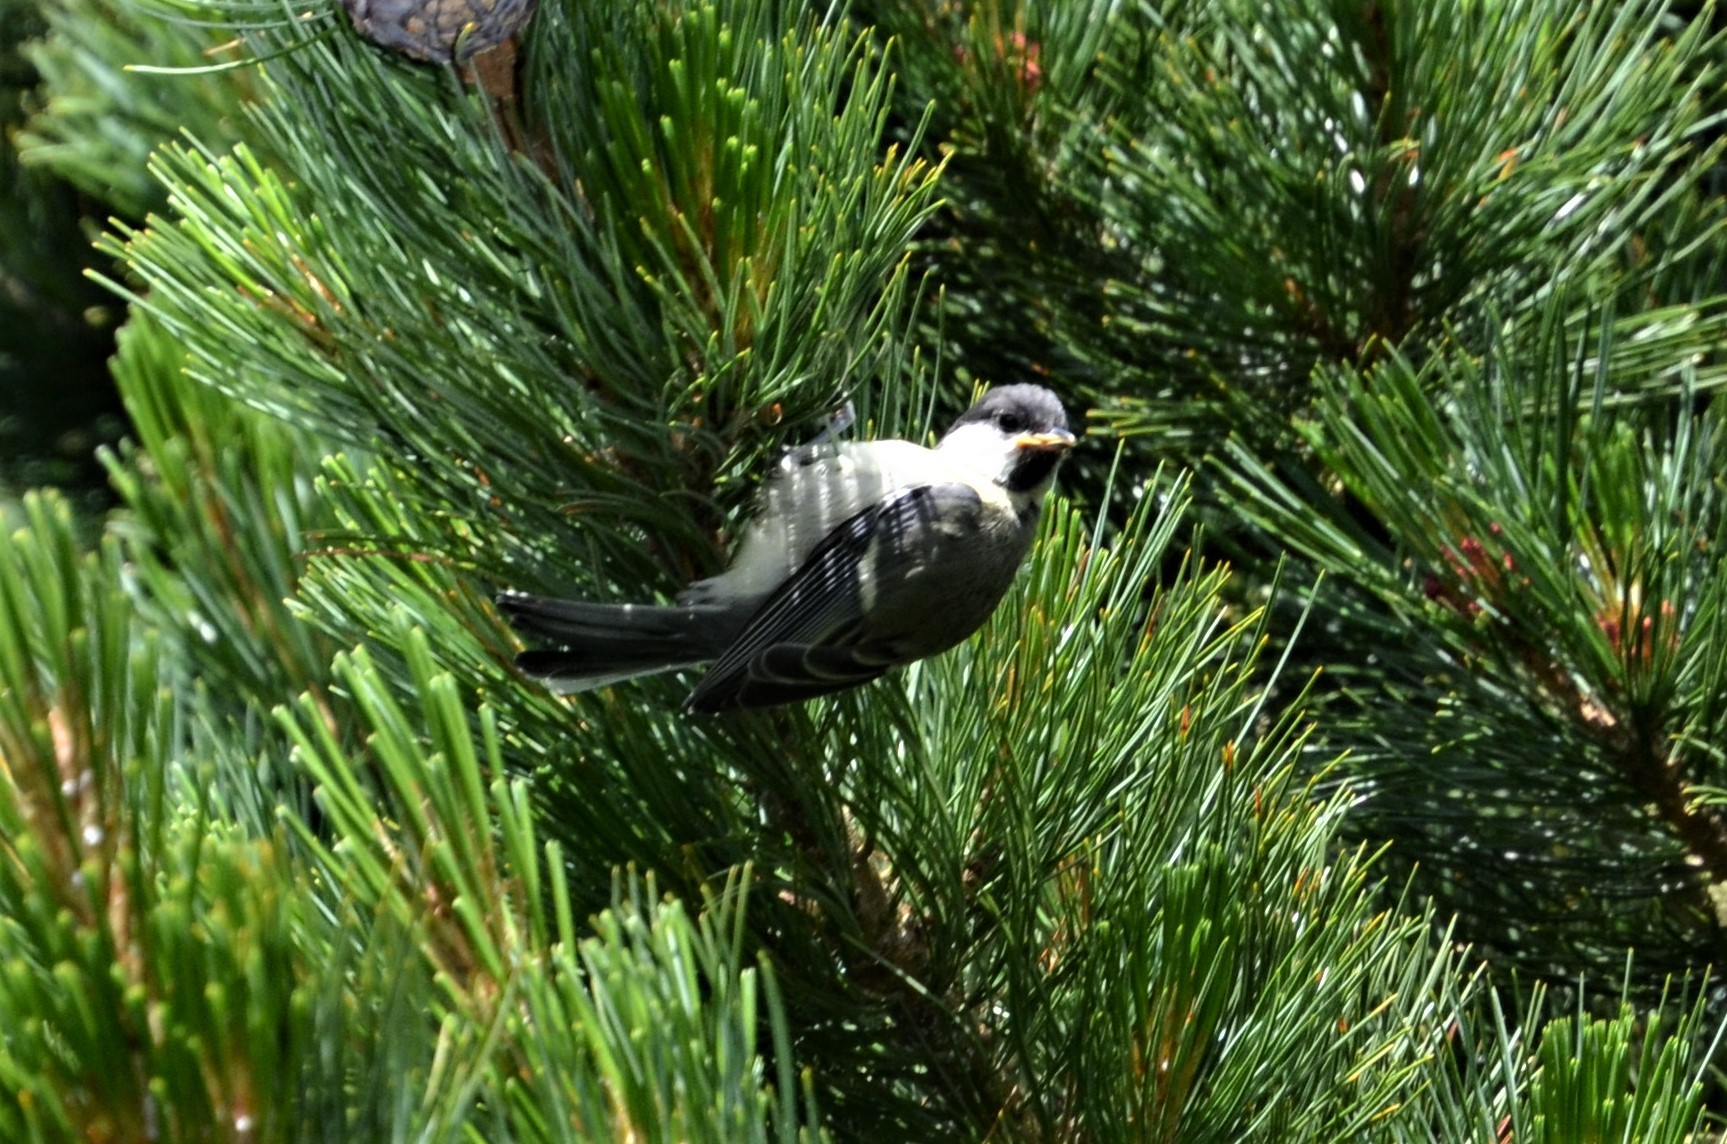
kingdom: Animalia
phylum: Chordata
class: Aves
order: Passeriformes
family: Paridae
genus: Periparus
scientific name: Periparus ater
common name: Coal tit
